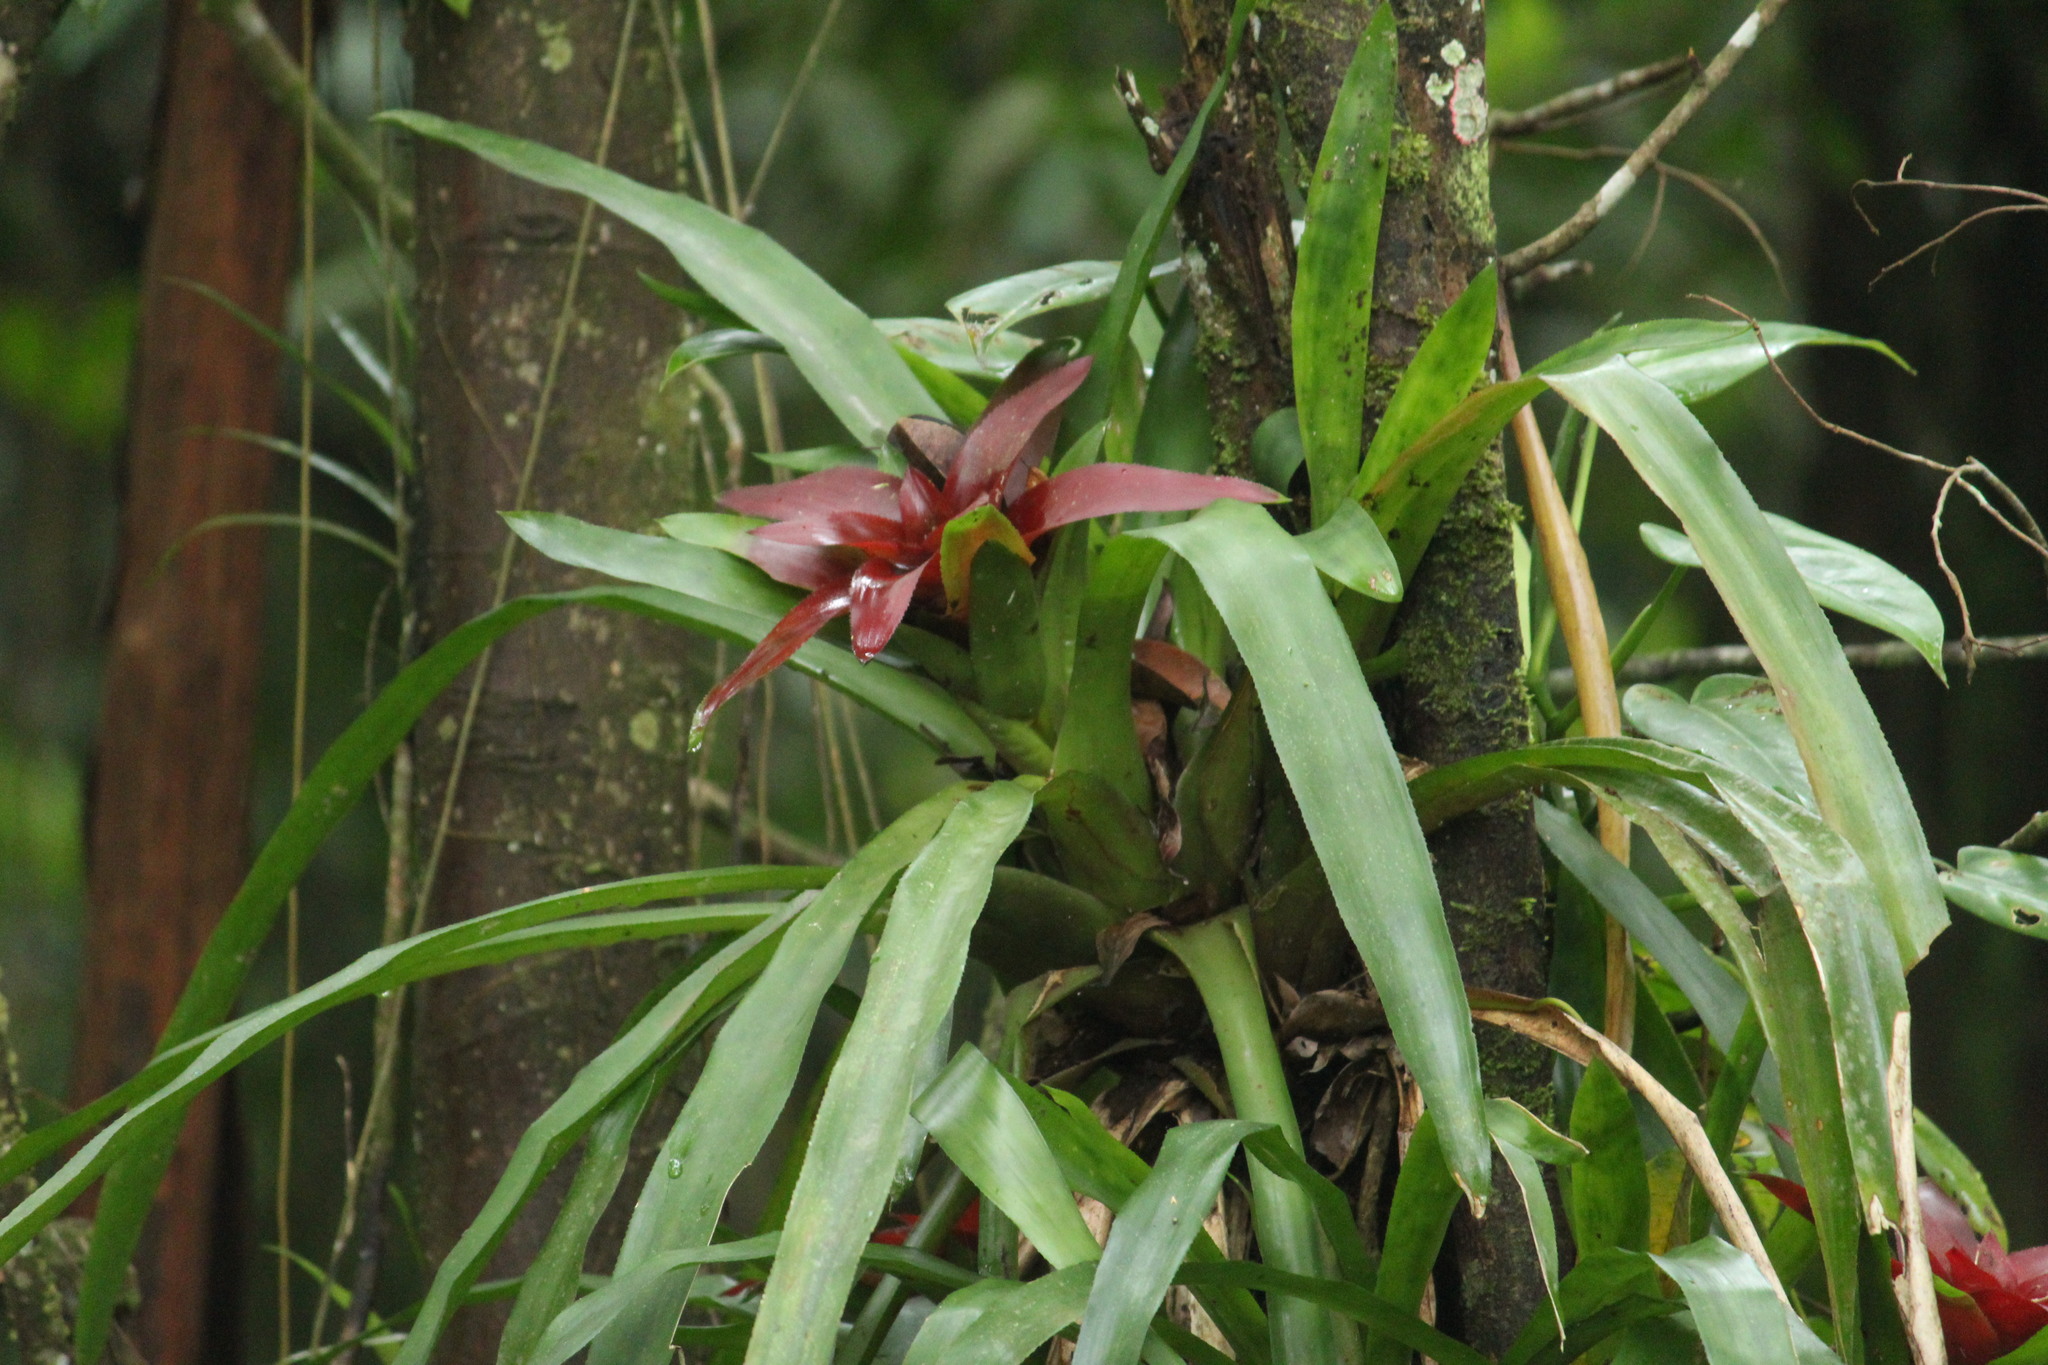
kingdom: Plantae
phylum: Tracheophyta
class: Liliopsida
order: Poales
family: Bromeliaceae
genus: Nidularium
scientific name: Nidularium procerum
